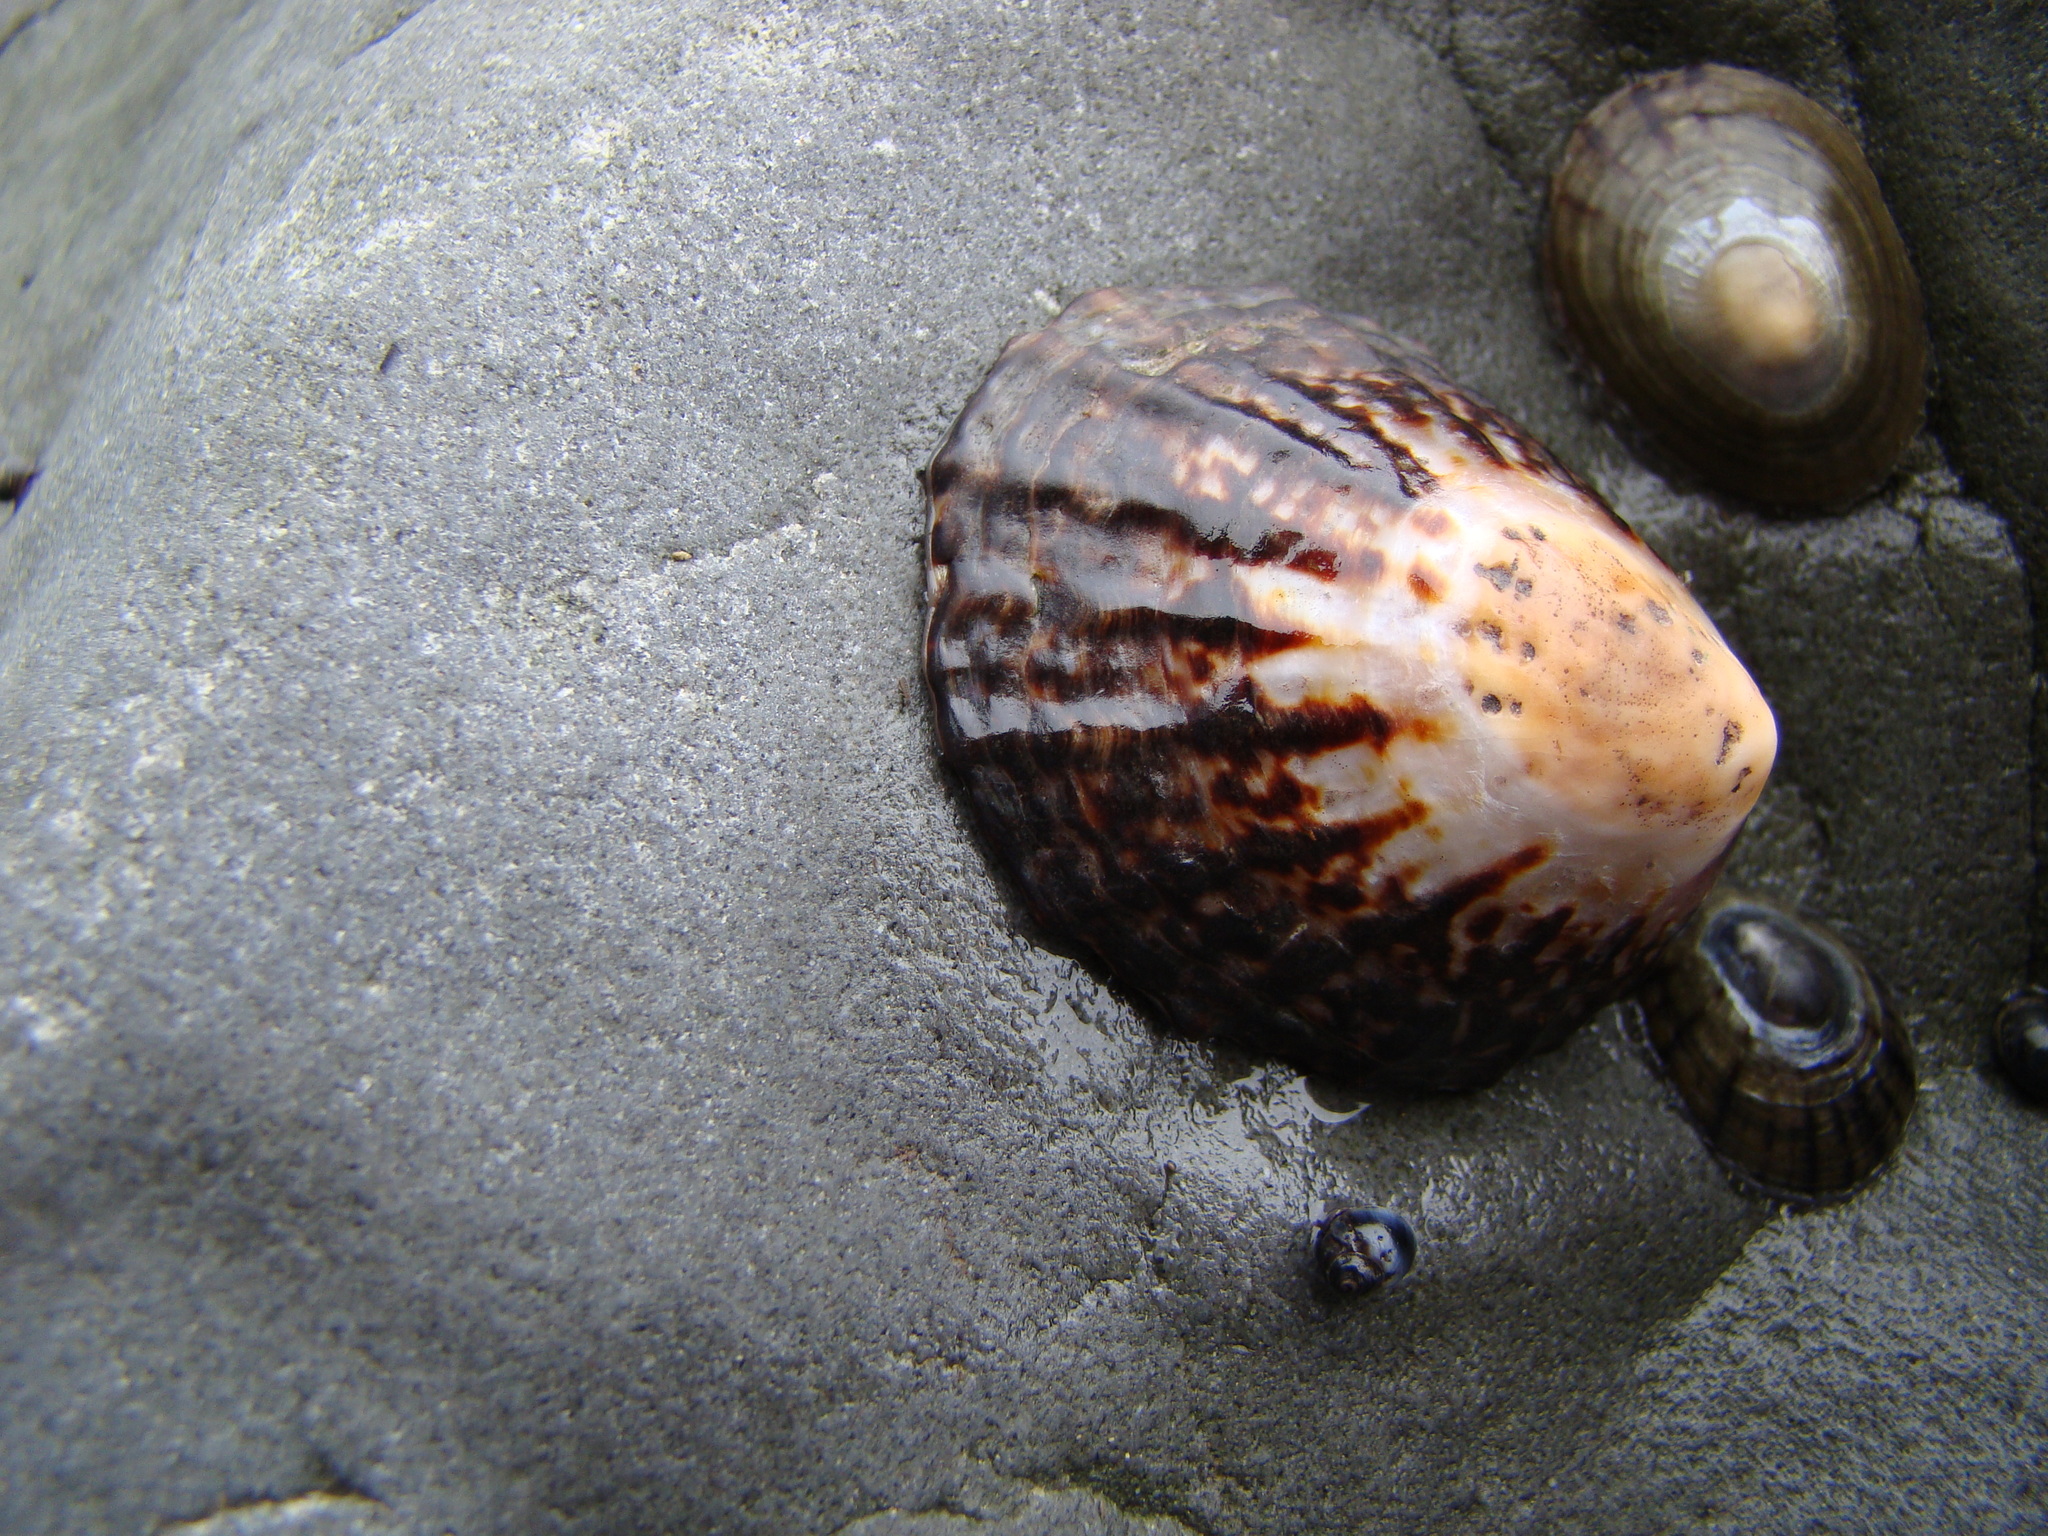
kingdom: Animalia
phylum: Mollusca
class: Gastropoda
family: Nacellidae
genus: Cellana
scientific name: Cellana denticulata
